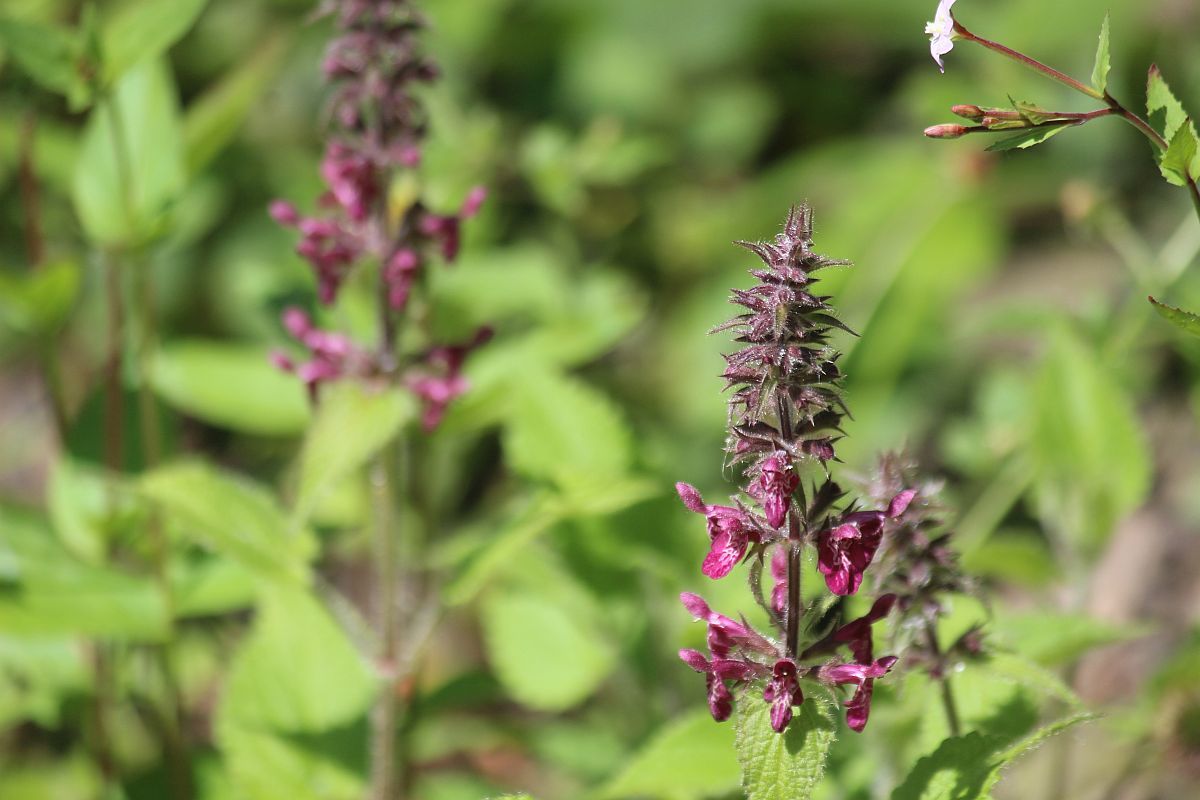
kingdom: Plantae
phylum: Tracheophyta
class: Magnoliopsida
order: Lamiales
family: Lamiaceae
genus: Stachys
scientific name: Stachys sylvatica
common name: Hedge woundwort
